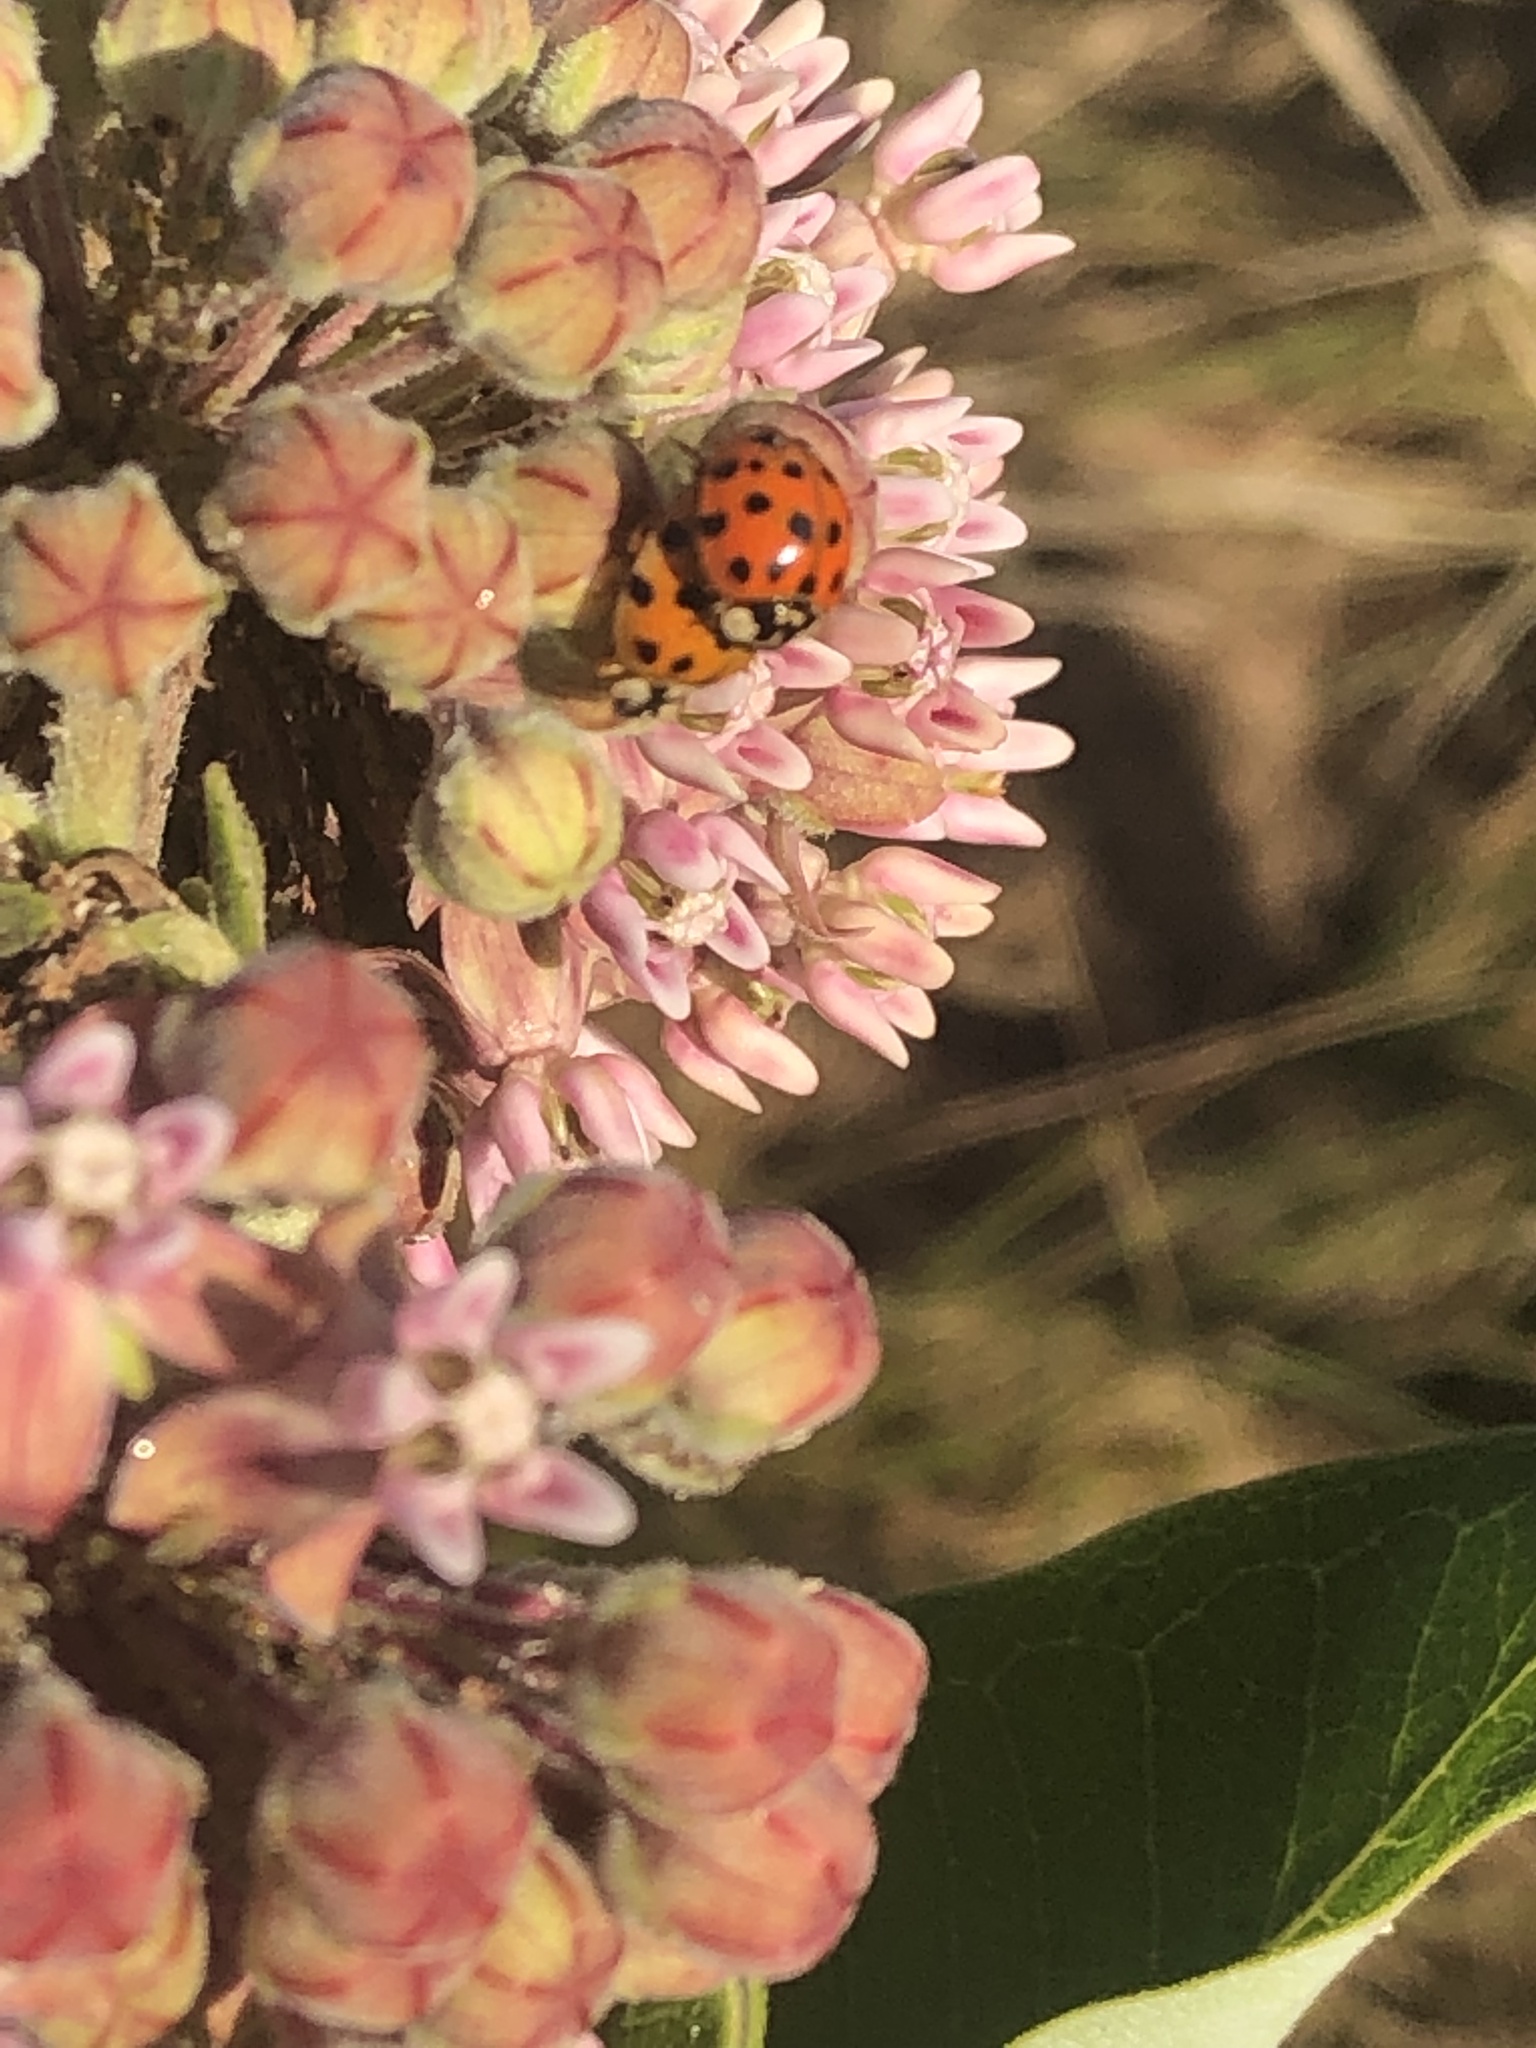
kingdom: Animalia
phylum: Arthropoda
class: Insecta
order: Coleoptera
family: Coccinellidae
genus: Harmonia
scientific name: Harmonia axyridis
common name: Harlequin ladybird
